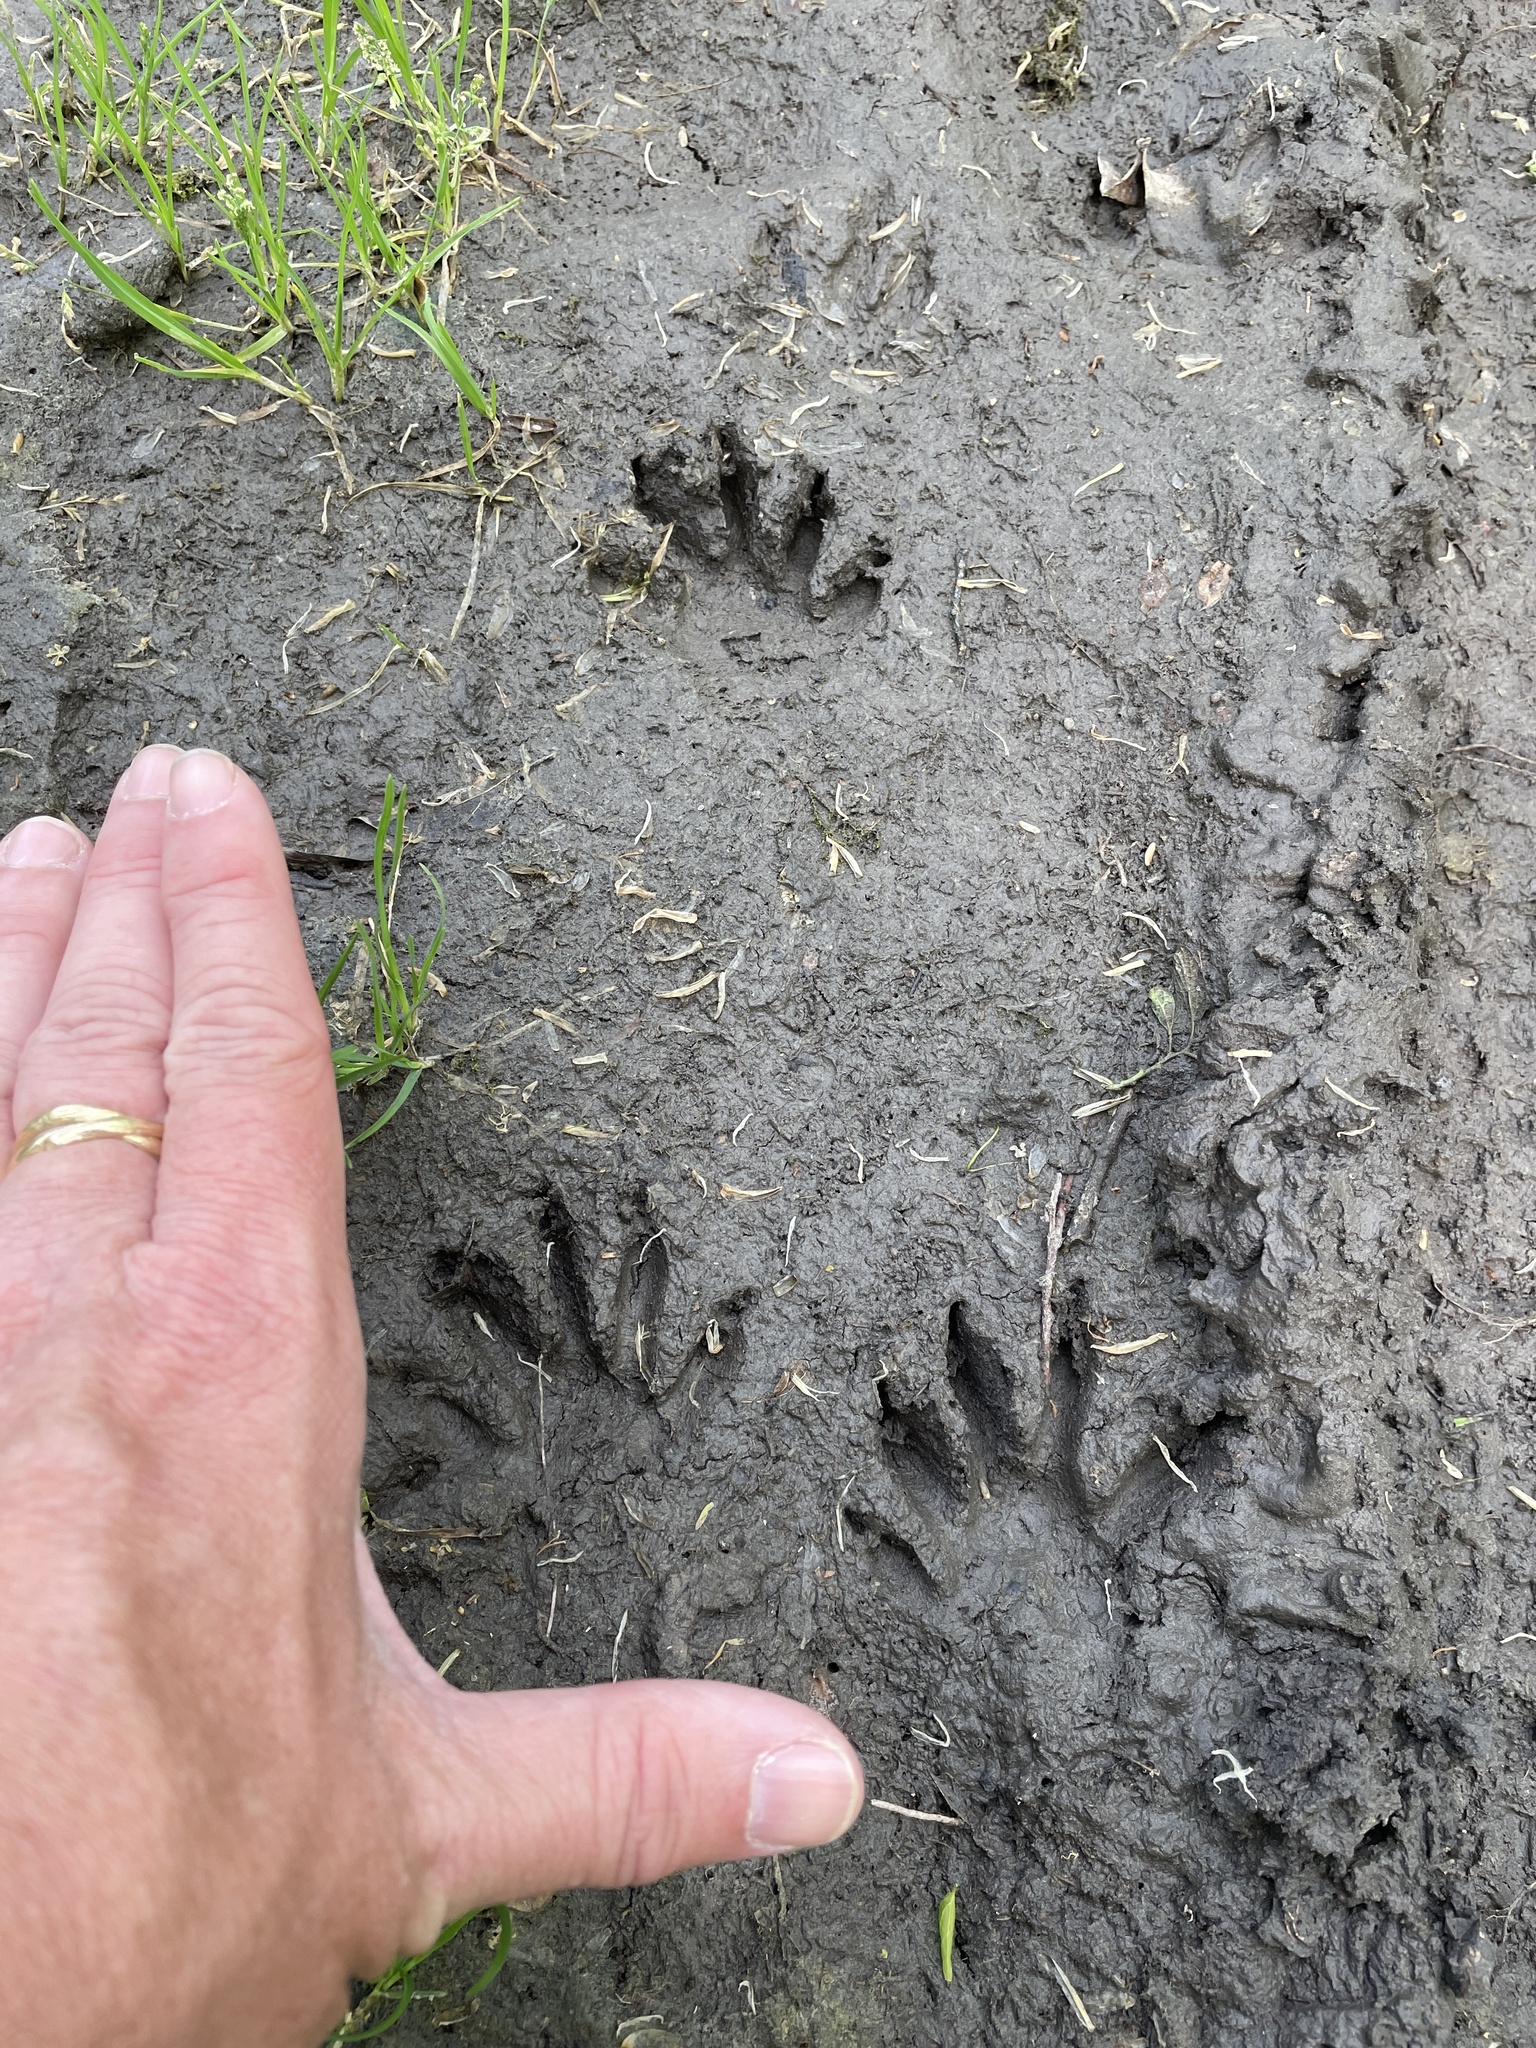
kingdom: Animalia
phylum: Chordata
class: Mammalia
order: Carnivora
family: Procyonidae
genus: Procyon
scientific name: Procyon lotor
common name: Raccoon
